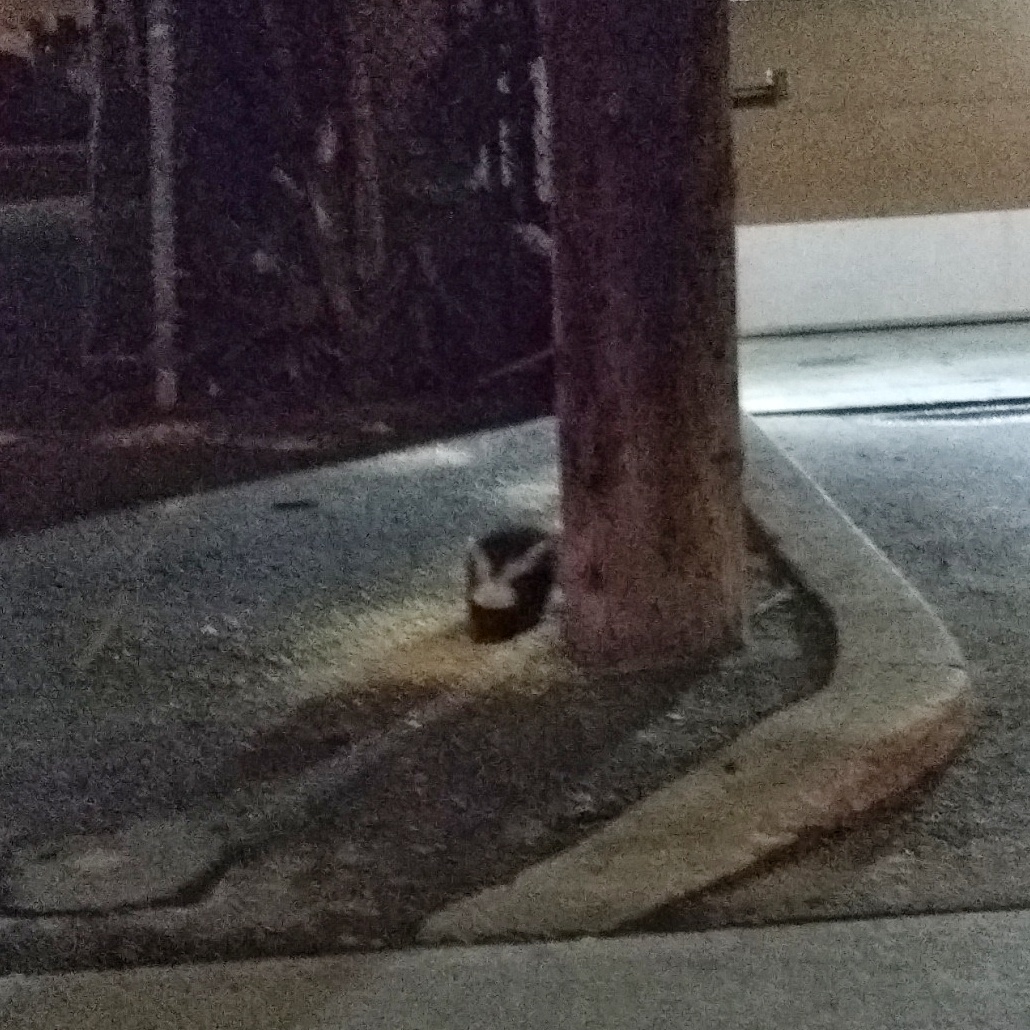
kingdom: Animalia
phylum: Chordata
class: Mammalia
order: Carnivora
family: Mephitidae
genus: Mephitis
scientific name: Mephitis mephitis
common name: Striped skunk
